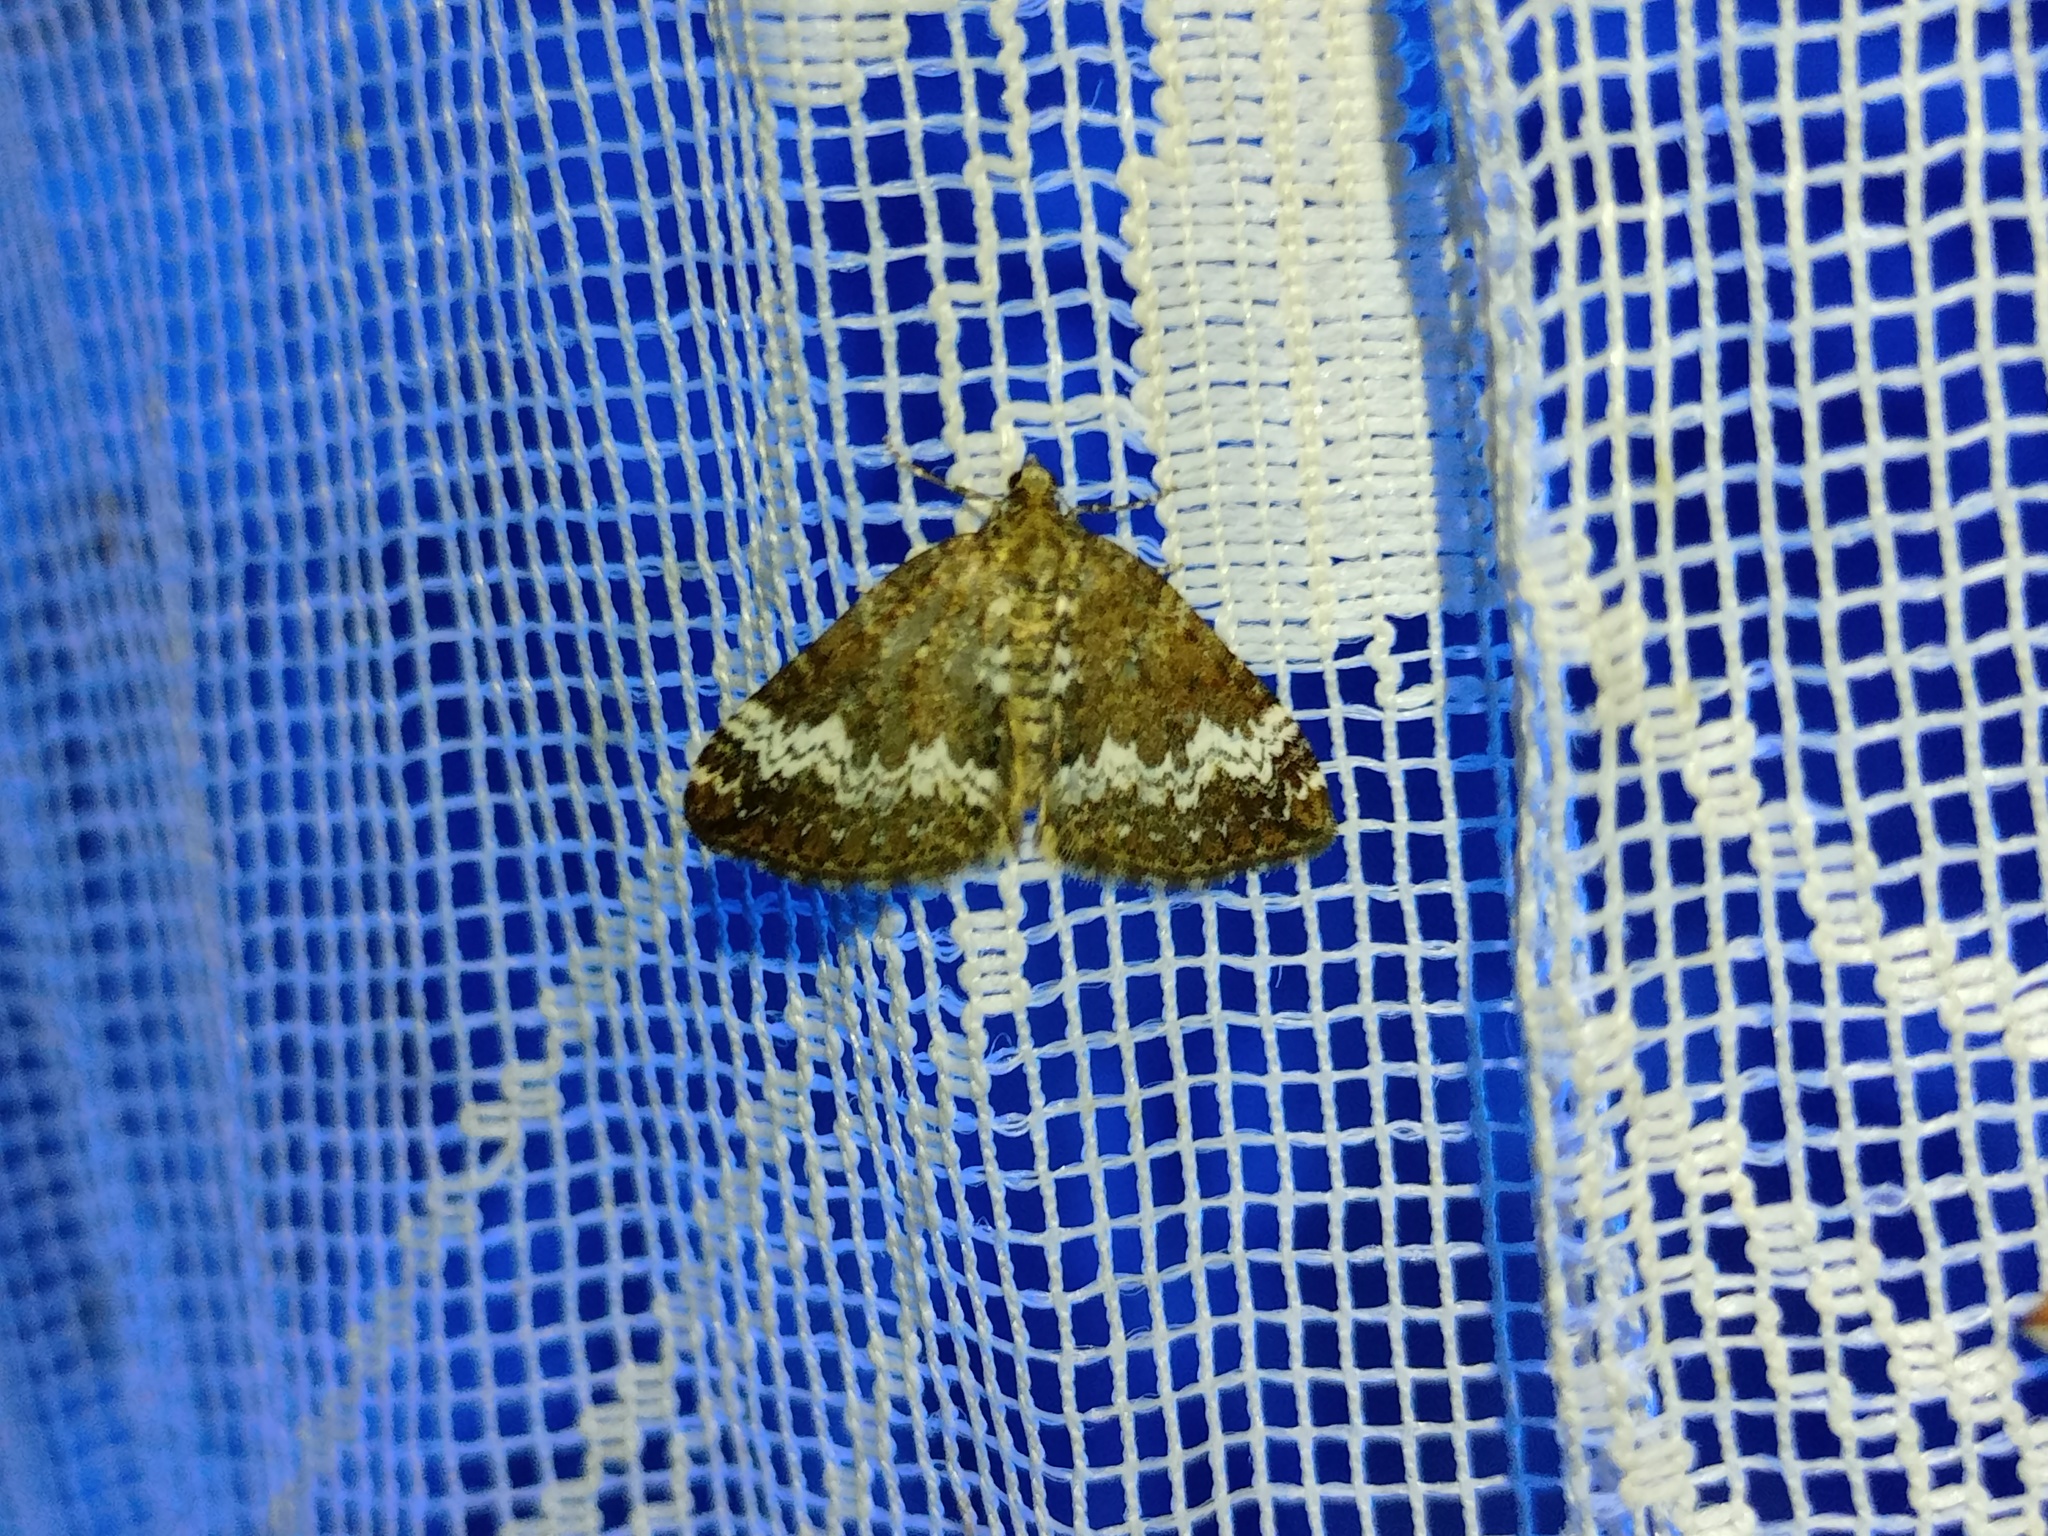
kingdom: Animalia
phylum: Arthropoda
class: Insecta
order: Lepidoptera
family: Geometridae
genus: Perizoma
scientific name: Perizoma alchemillata
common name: Small rivulet
